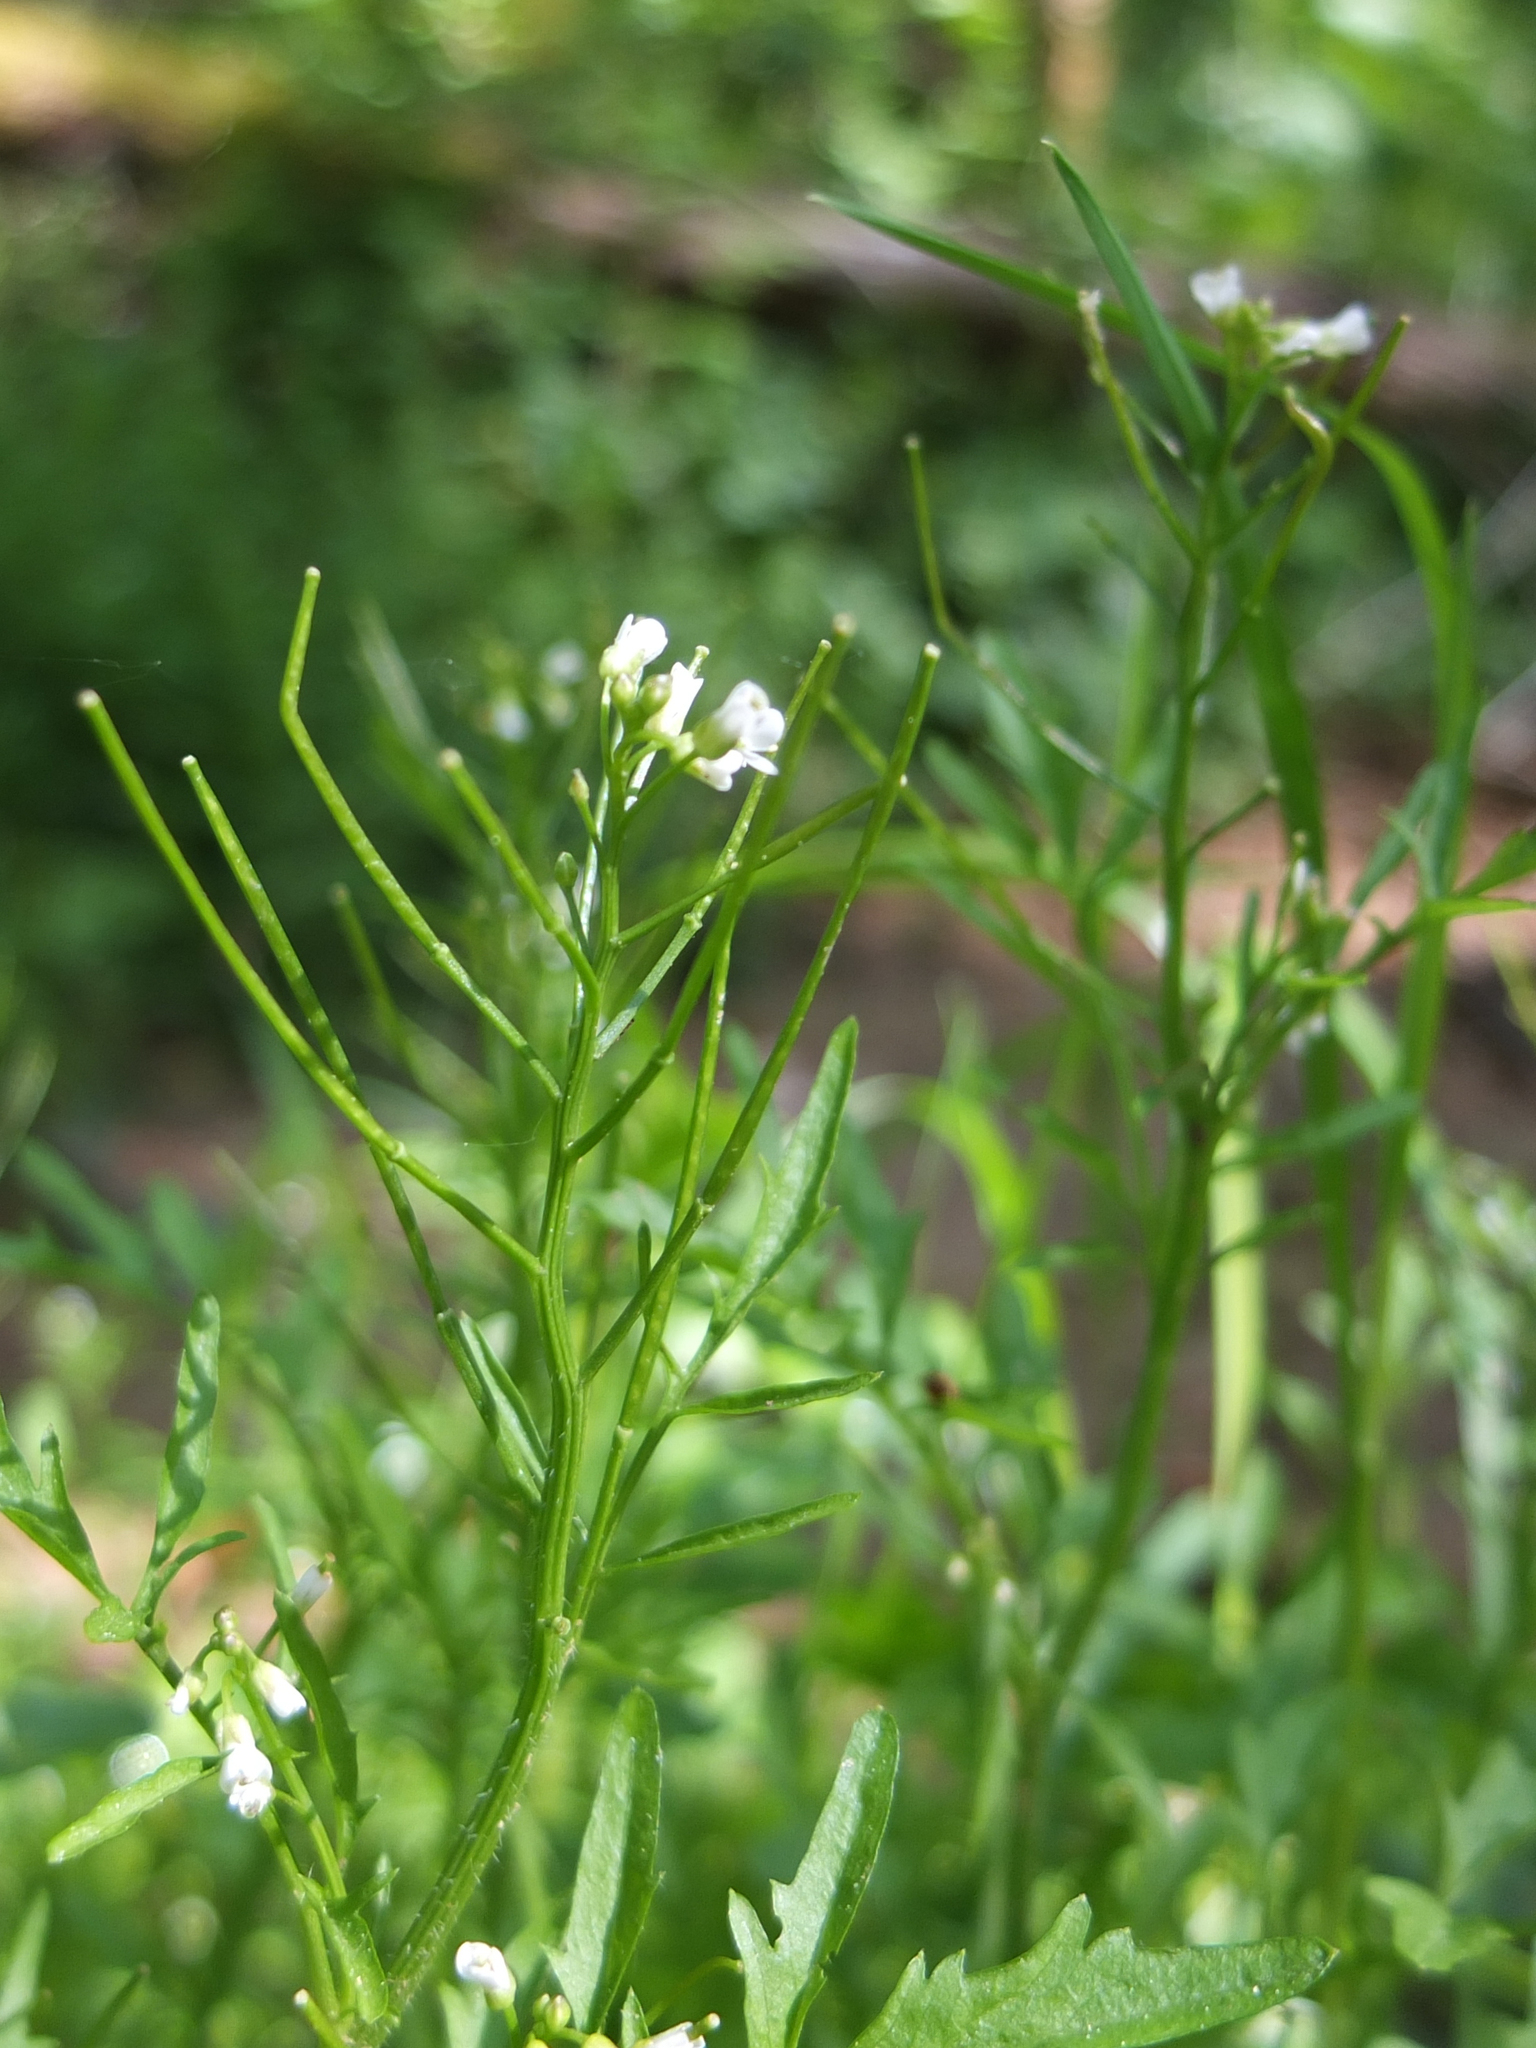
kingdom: Plantae
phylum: Tracheophyta
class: Magnoliopsida
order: Brassicales
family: Brassicaceae
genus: Cardamine
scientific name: Cardamine flexuosa
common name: Woodland bittercress
